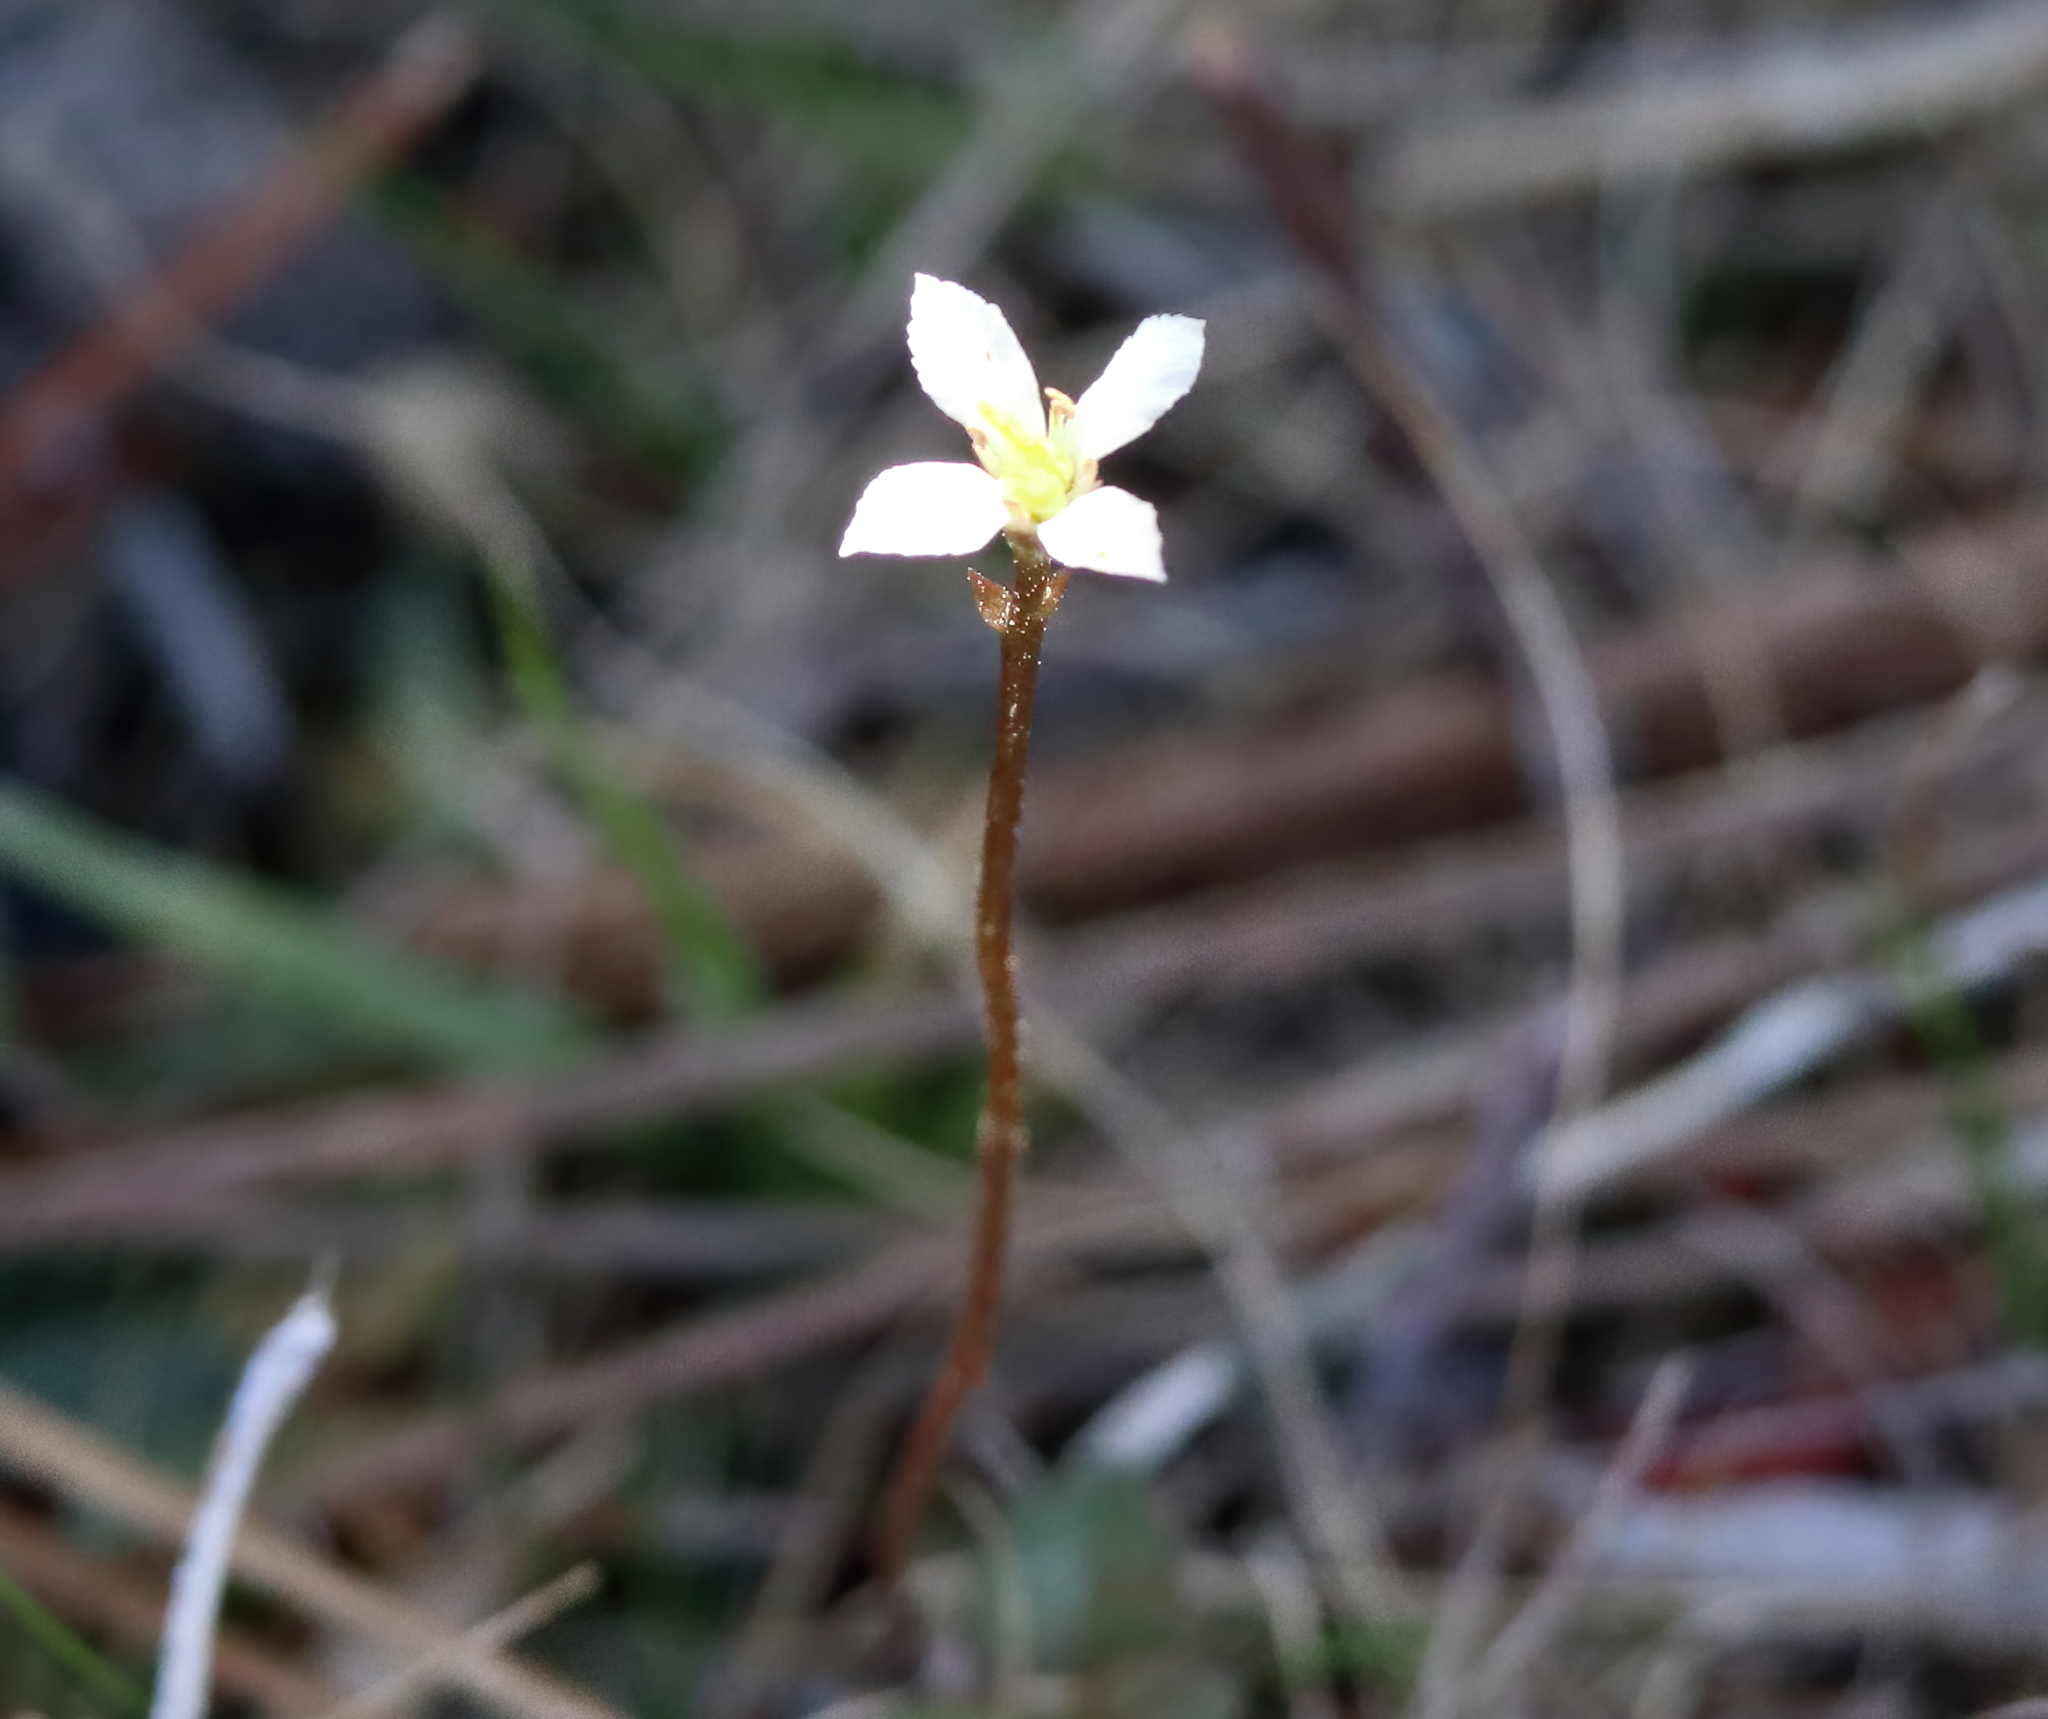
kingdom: Plantae
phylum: Tracheophyta
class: Magnoliopsida
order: Gentianales
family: Gentianaceae
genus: Bartonia
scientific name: Bartonia verna
